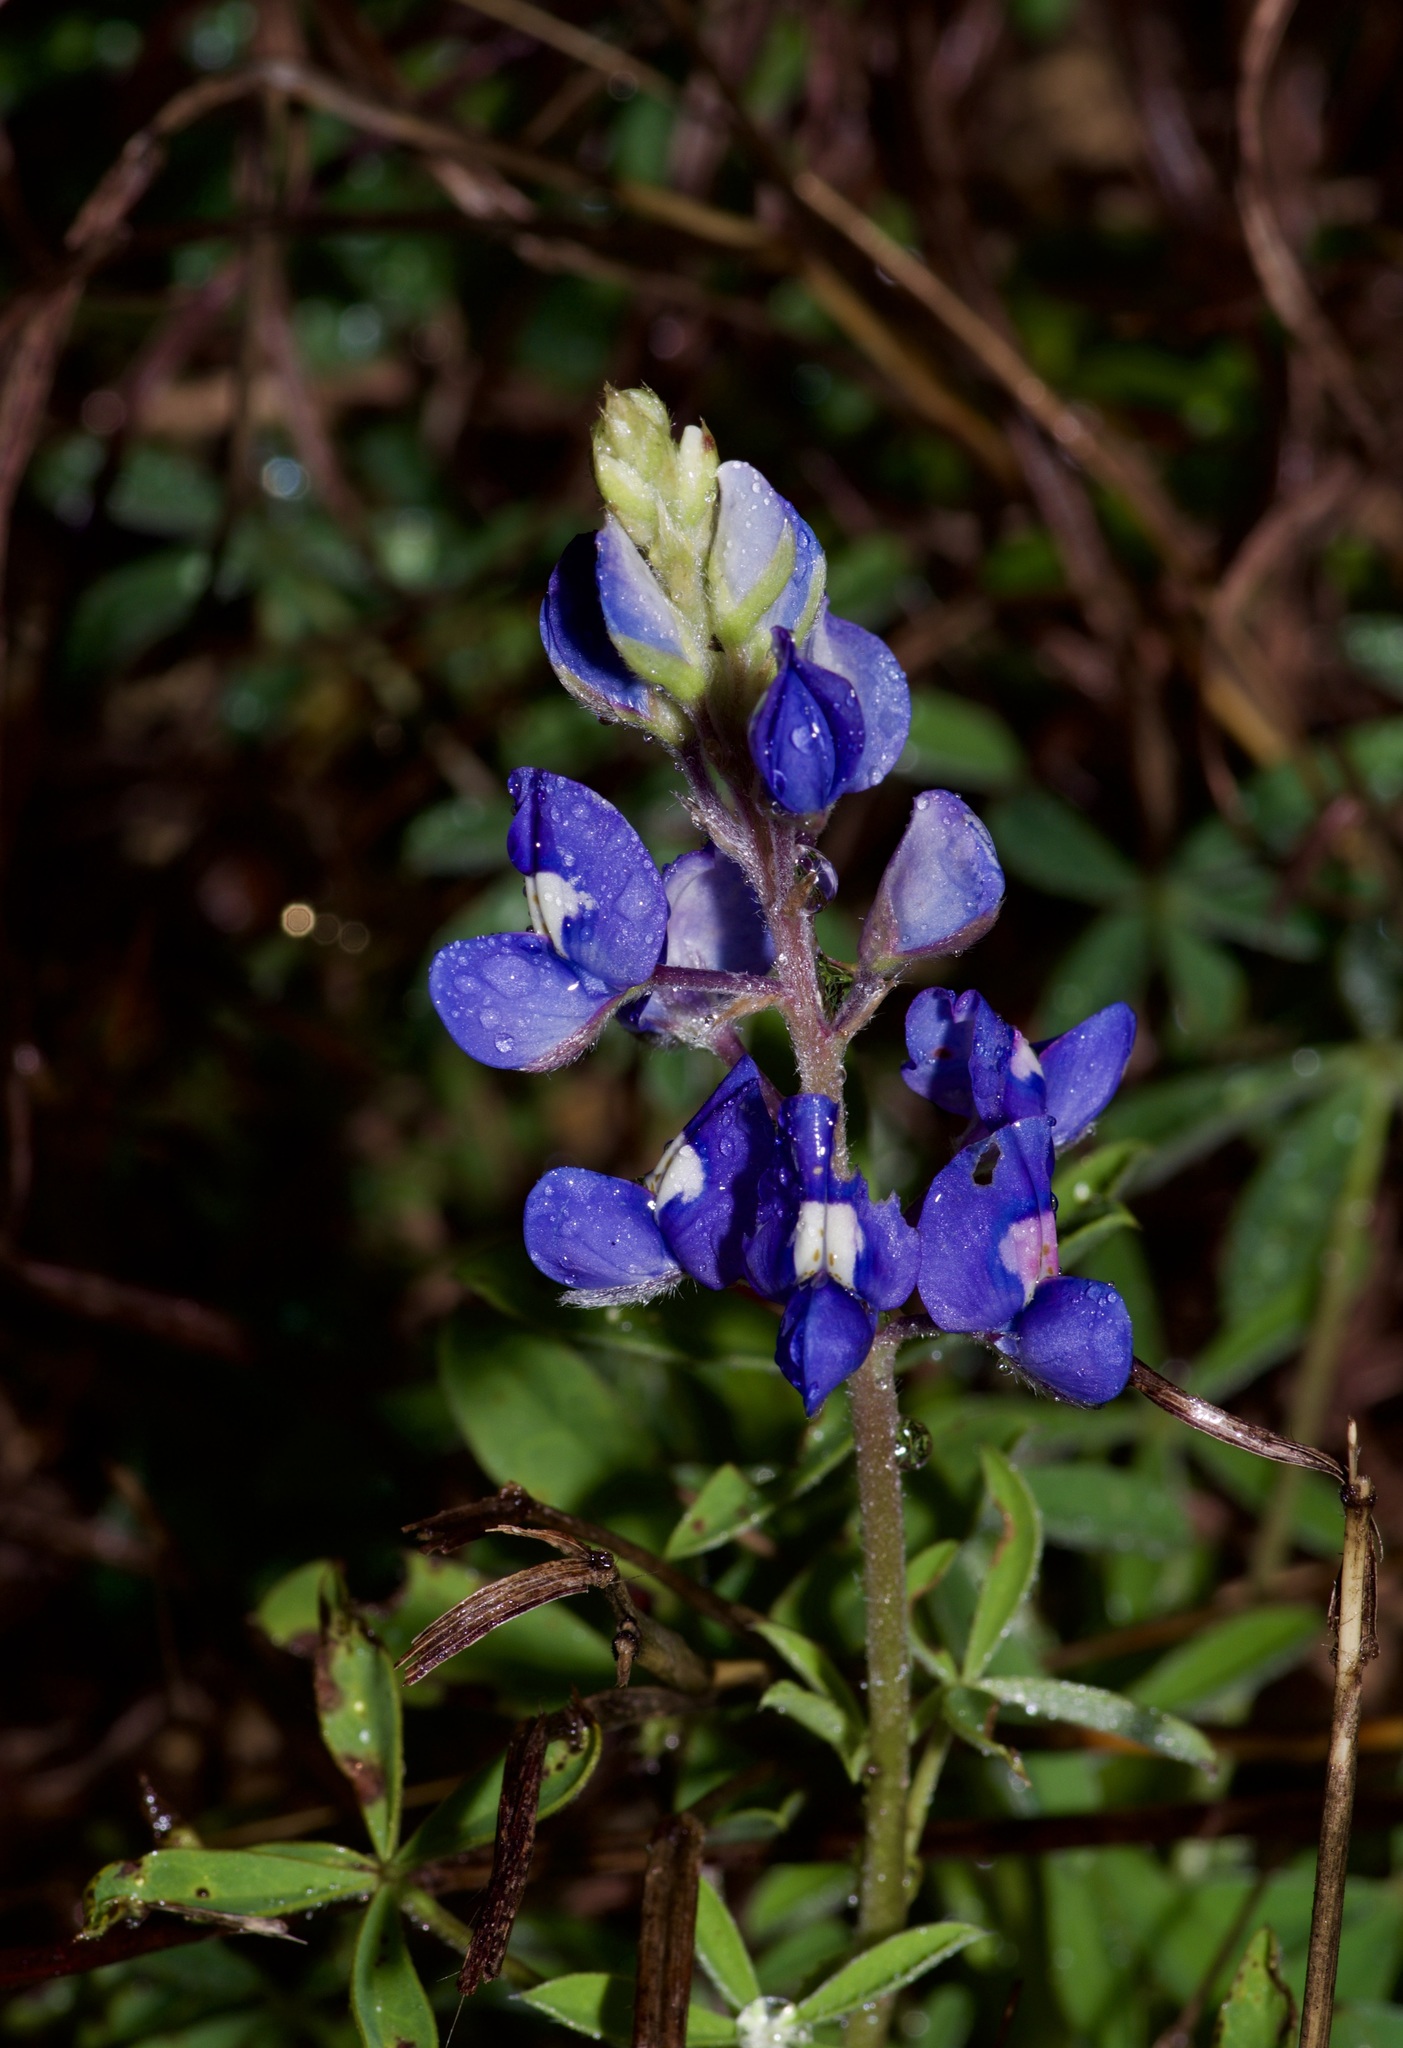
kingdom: Plantae
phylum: Tracheophyta
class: Magnoliopsida
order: Fabales
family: Fabaceae
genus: Lupinus
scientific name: Lupinus texensis
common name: Texas bluebonnet
